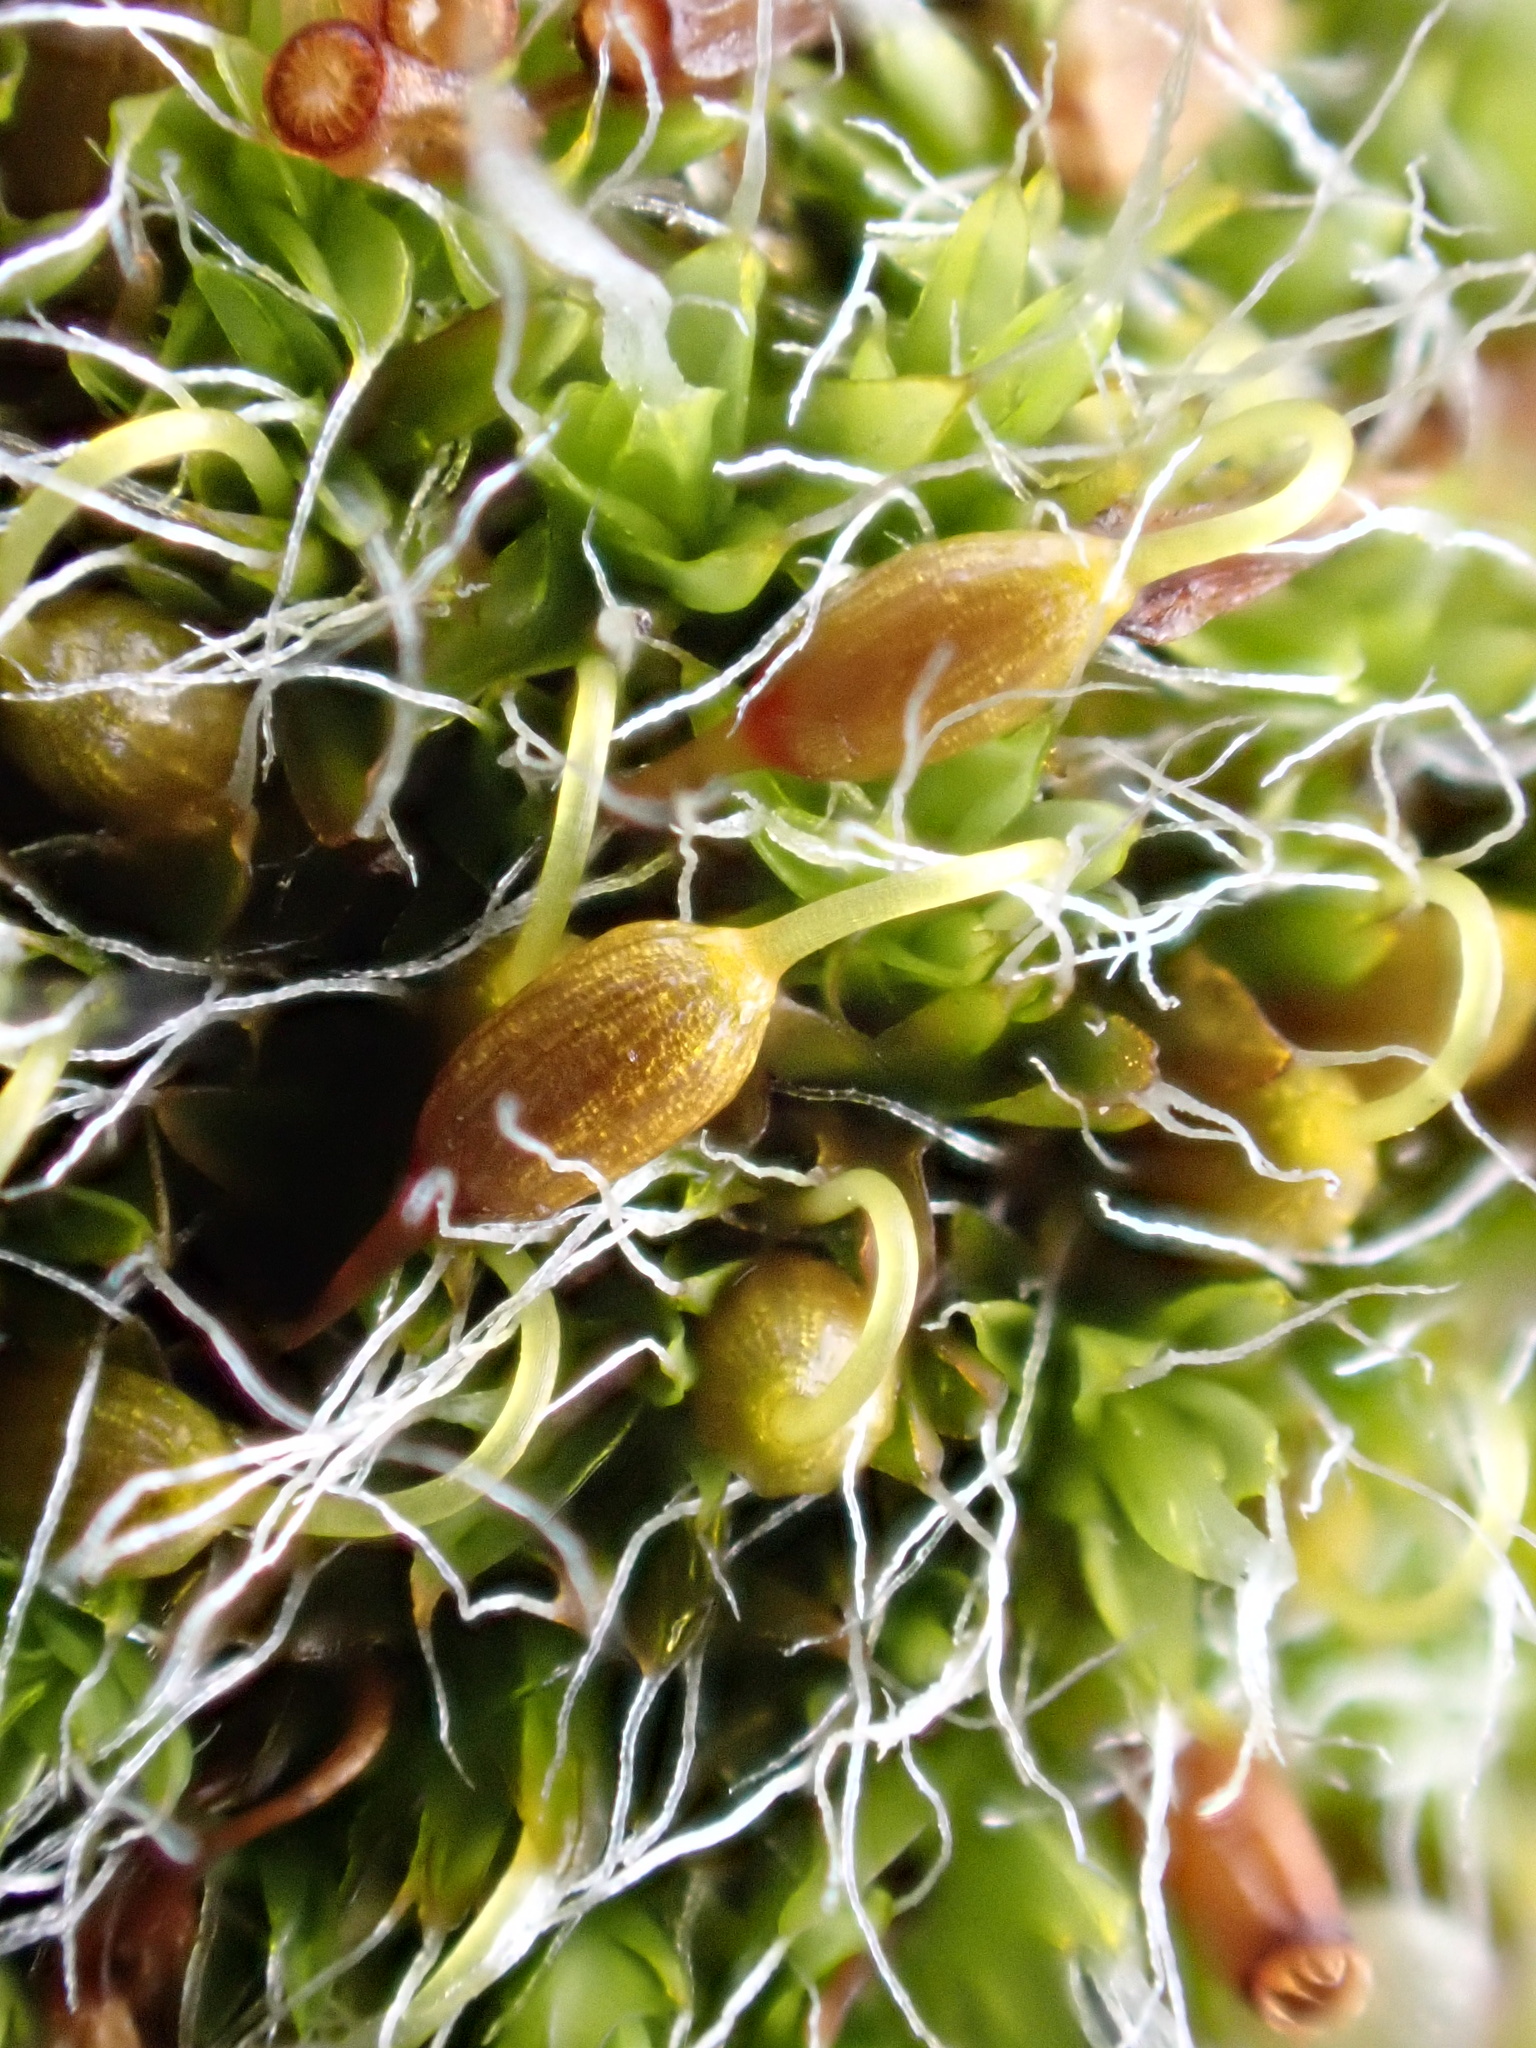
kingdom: Plantae
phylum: Bryophyta
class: Bryopsida
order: Grimmiales
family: Grimmiaceae
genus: Grimmia
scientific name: Grimmia pulvinata
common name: Grey-cushioned grimmia
